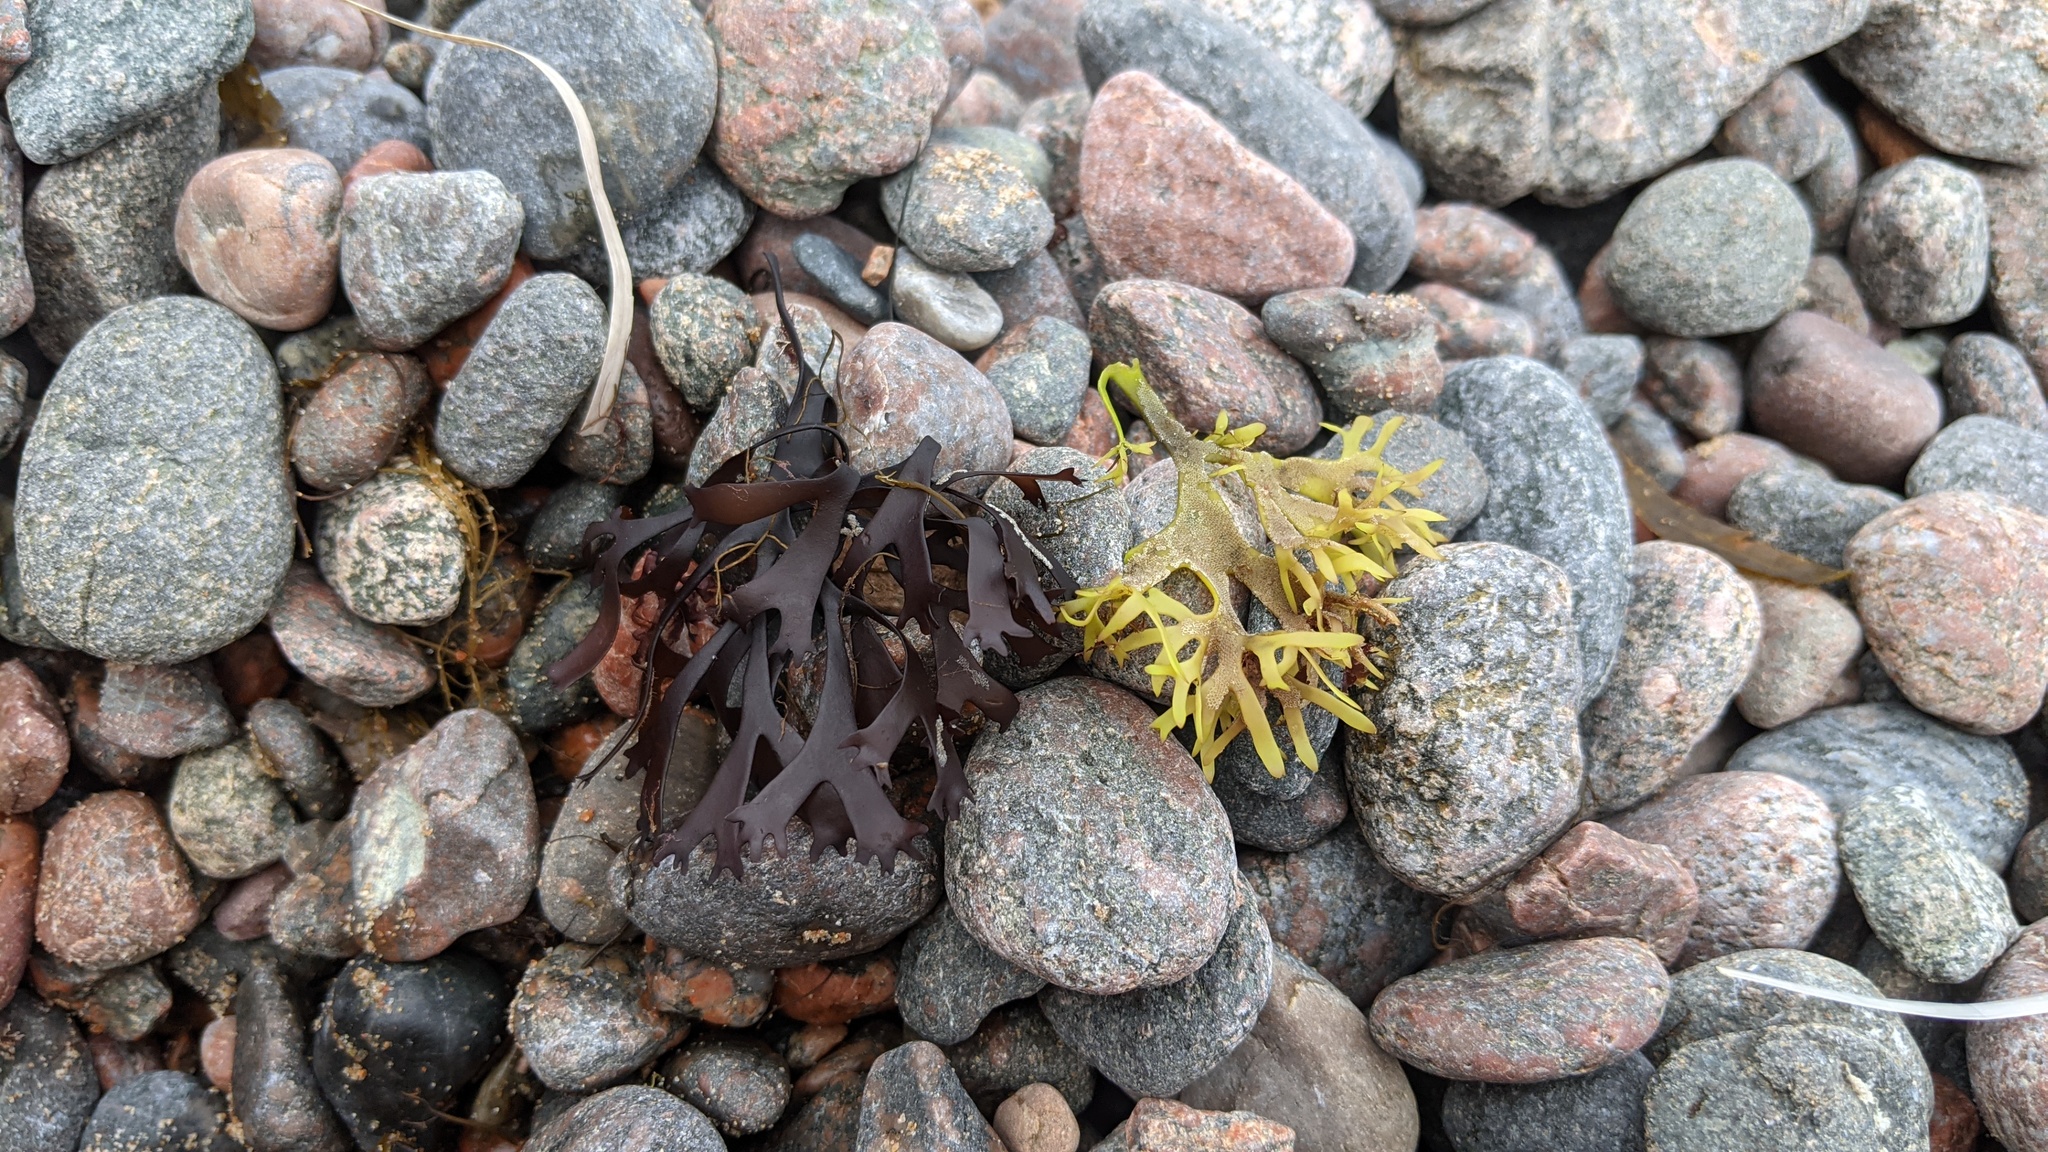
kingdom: Plantae
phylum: Rhodophyta
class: Florideophyceae
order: Gigartinales
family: Gigartinaceae
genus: Chondrus
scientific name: Chondrus crispus
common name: Carrageen
